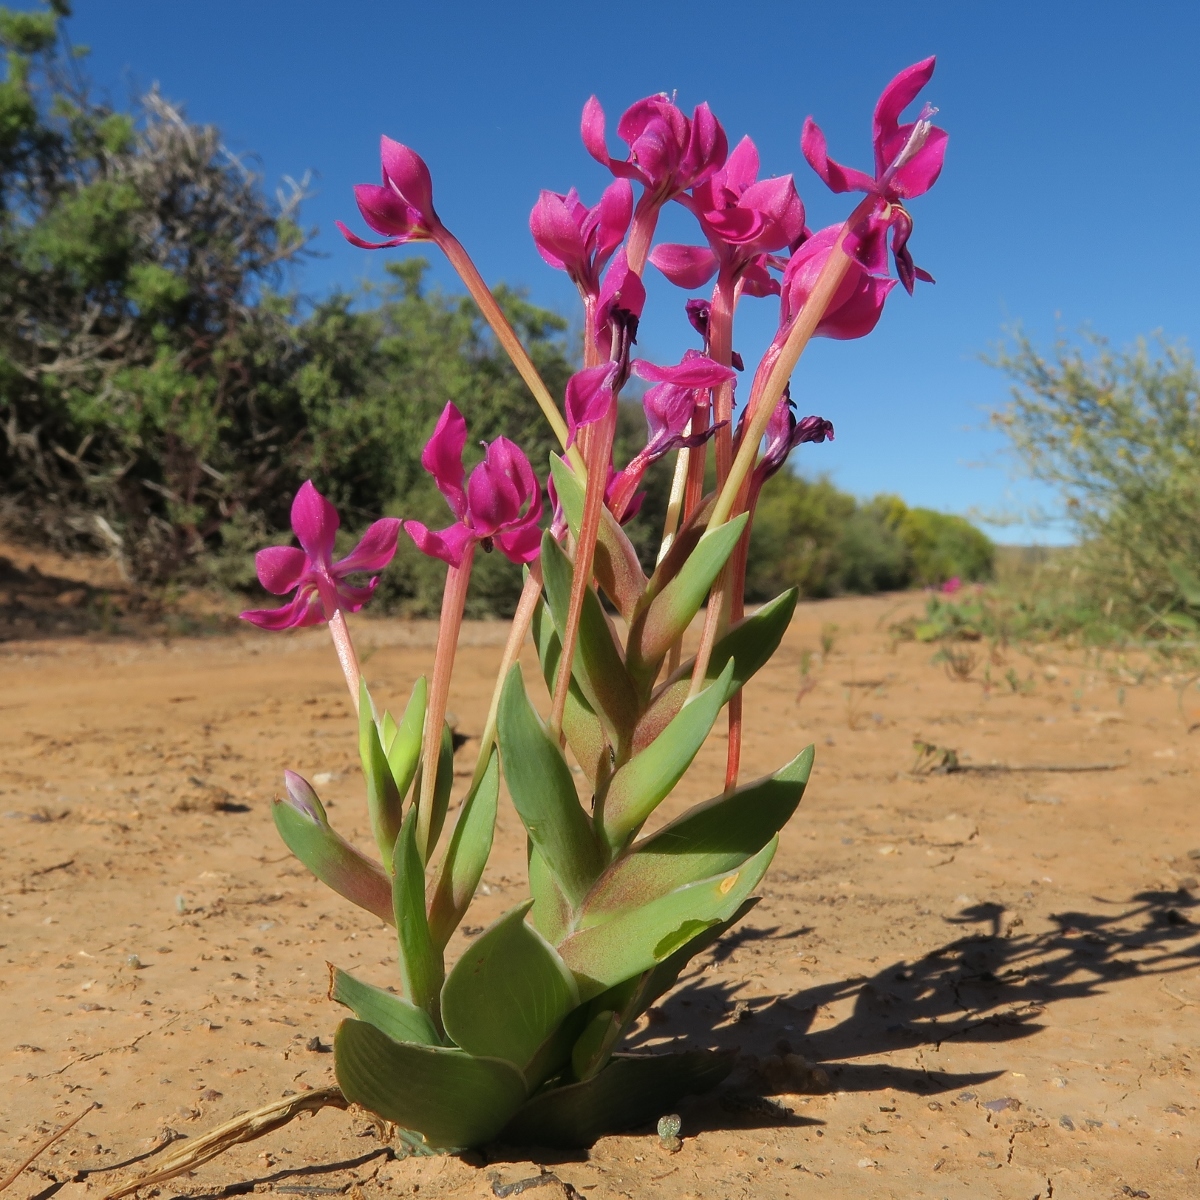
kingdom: Plantae
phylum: Tracheophyta
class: Liliopsida
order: Asparagales
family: Iridaceae
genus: Lapeirousia
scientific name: Lapeirousia silenoides
